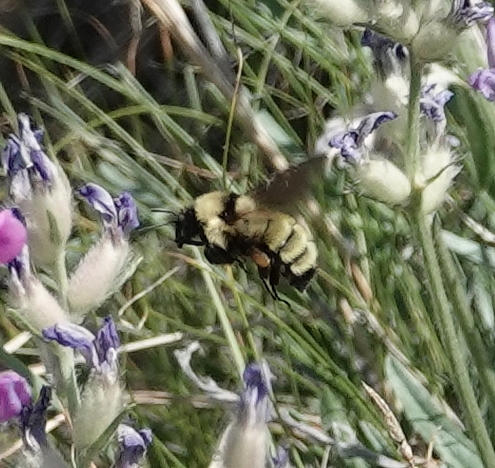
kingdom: Animalia
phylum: Arthropoda
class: Insecta
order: Hymenoptera
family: Apidae
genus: Bombus
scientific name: Bombus fervidus
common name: Yellow bumble bee
